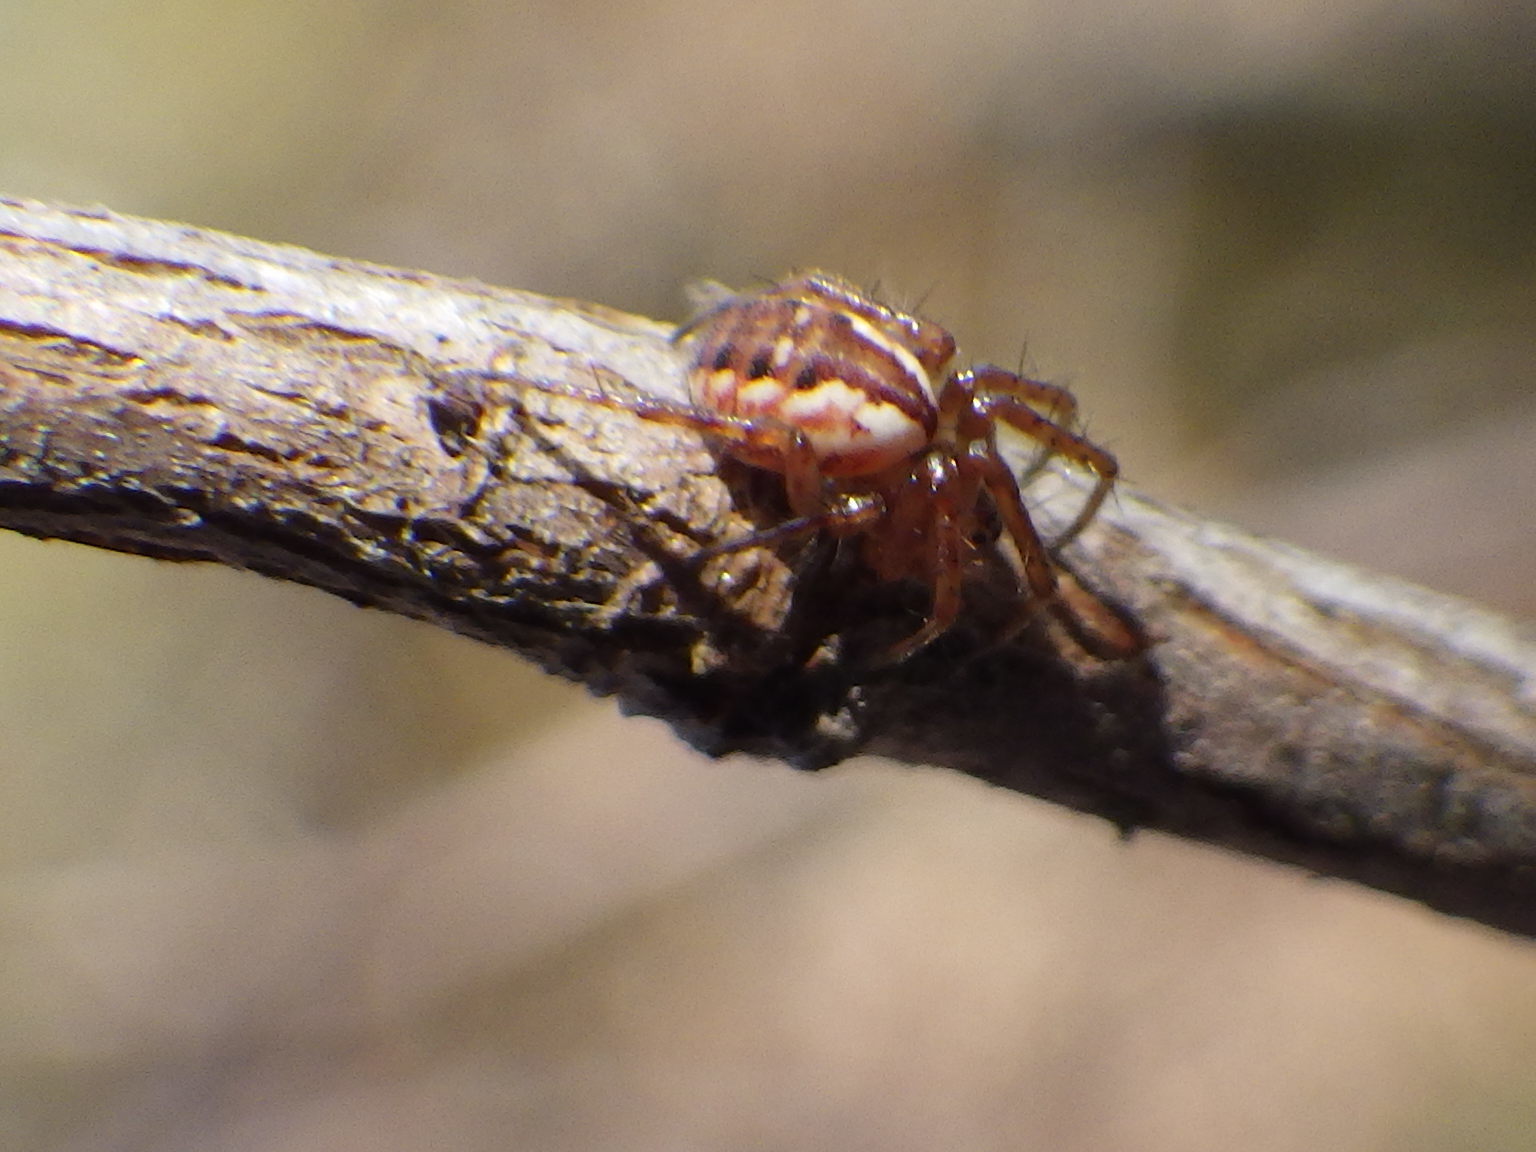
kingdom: Animalia
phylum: Arthropoda
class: Arachnida
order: Araneae
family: Araneidae
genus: Mangora
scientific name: Mangora placida
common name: Tuft-legged orbweaver
